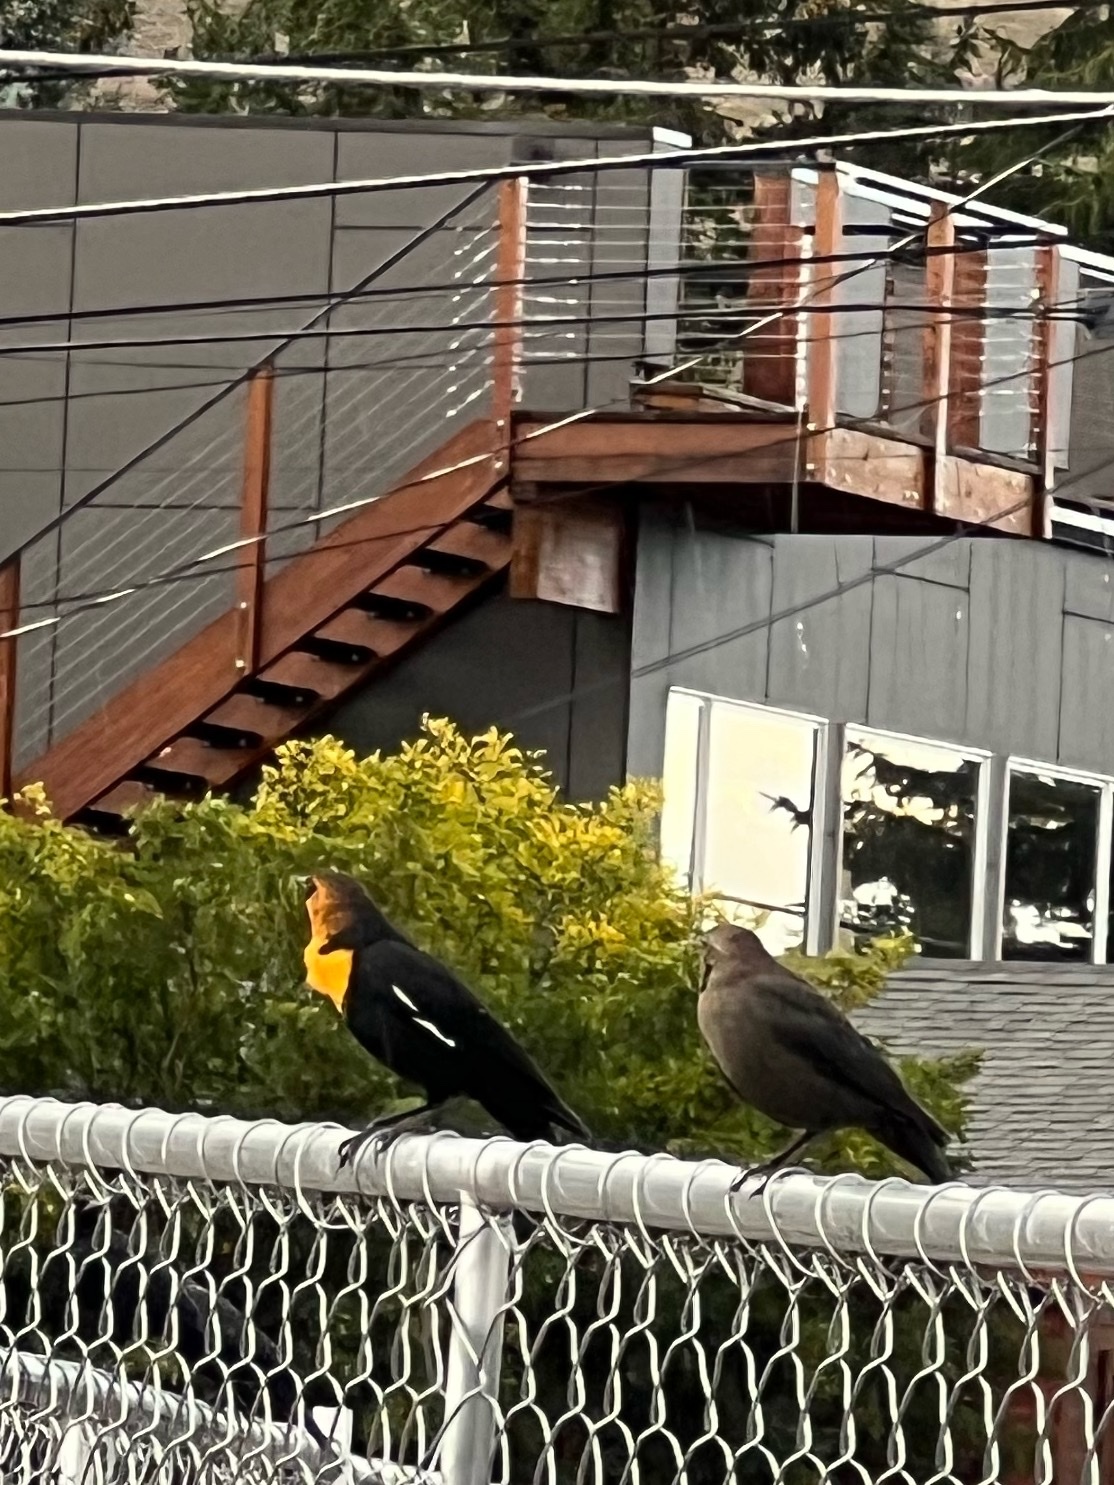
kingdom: Animalia
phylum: Chordata
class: Aves
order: Passeriformes
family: Icteridae
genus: Xanthocephalus
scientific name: Xanthocephalus xanthocephalus
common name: Yellow-headed blackbird
